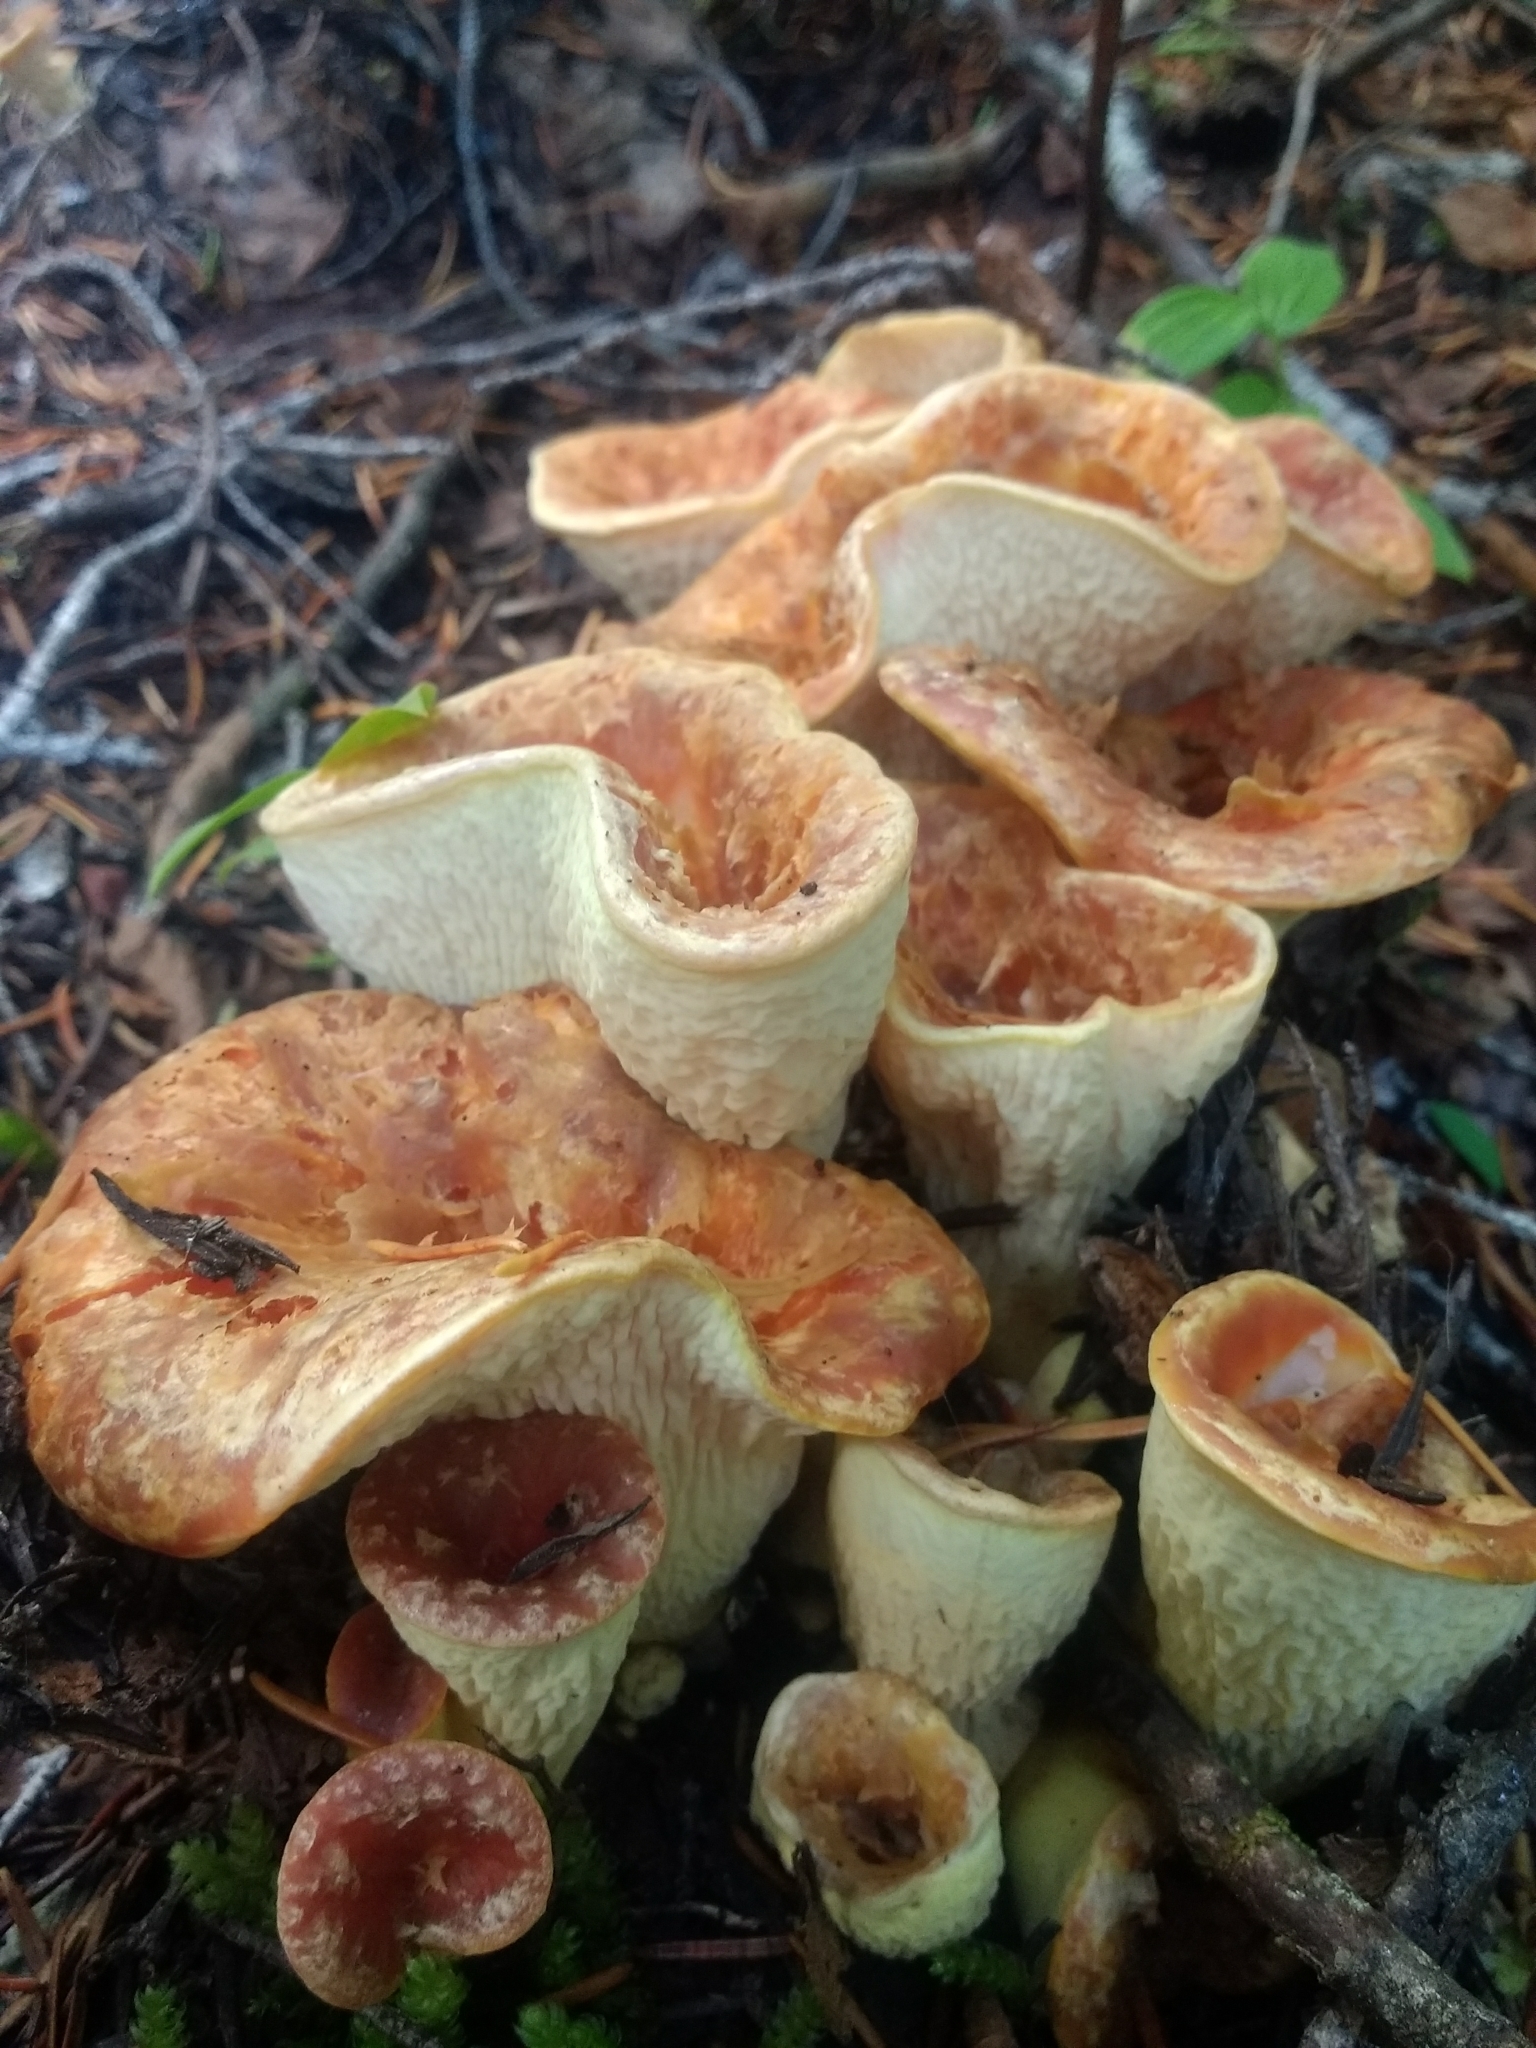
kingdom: Fungi
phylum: Basidiomycota
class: Agaricomycetes
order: Gomphales
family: Gomphaceae
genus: Turbinellus
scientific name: Turbinellus floccosus
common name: Scaly chanterelle
